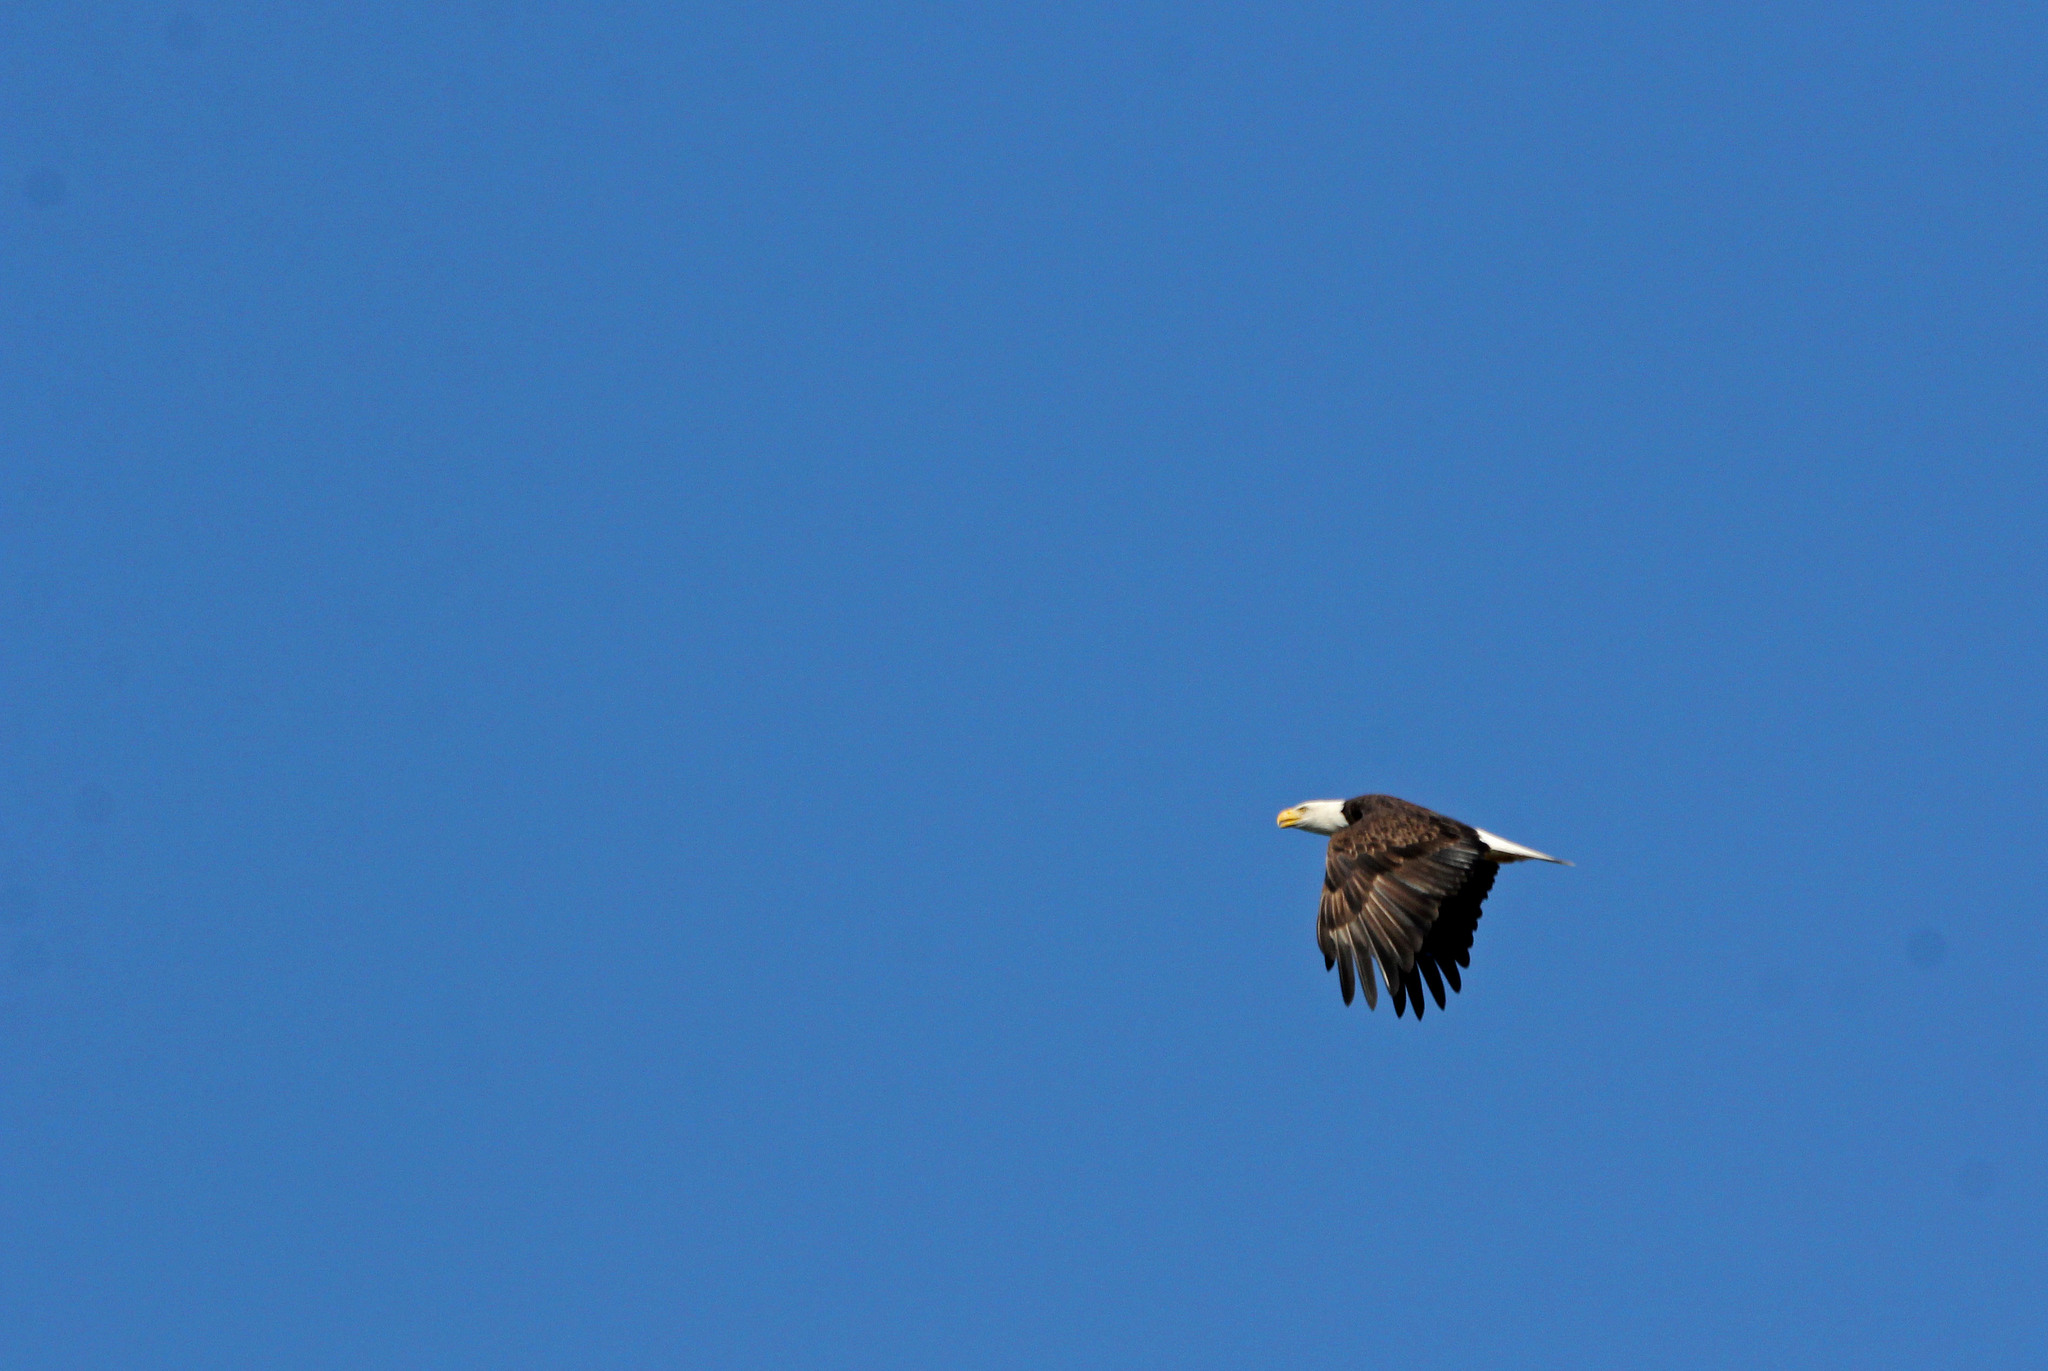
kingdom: Animalia
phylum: Chordata
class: Aves
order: Accipitriformes
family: Accipitridae
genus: Haliaeetus
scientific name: Haliaeetus leucocephalus
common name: Bald eagle
